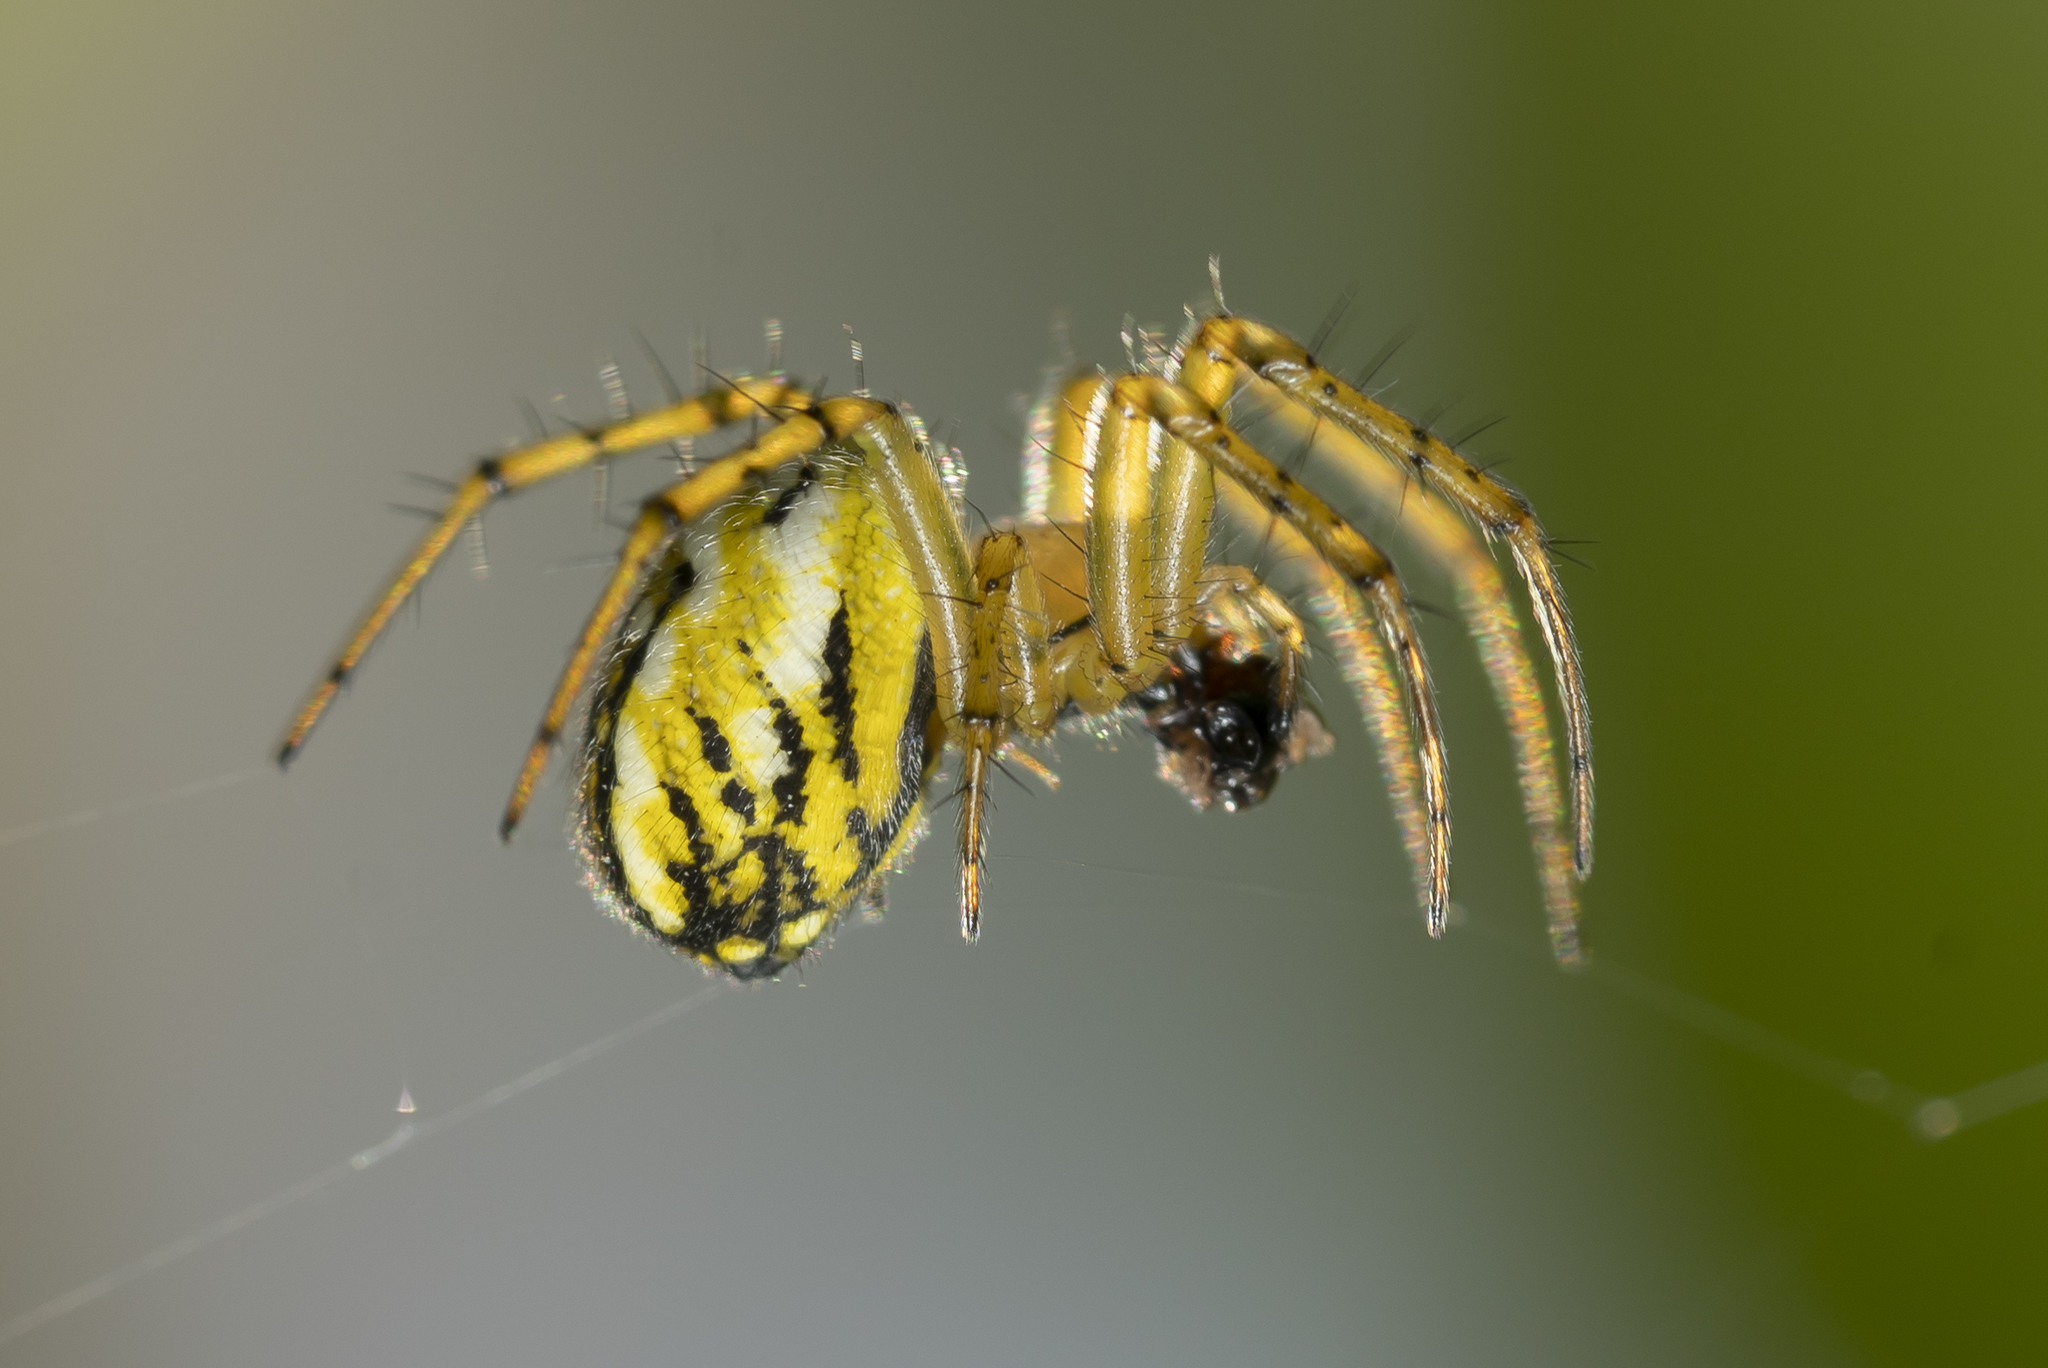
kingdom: Animalia
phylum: Arthropoda
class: Arachnida
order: Araneae
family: Araneidae
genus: Mangora
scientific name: Mangora acalypha
